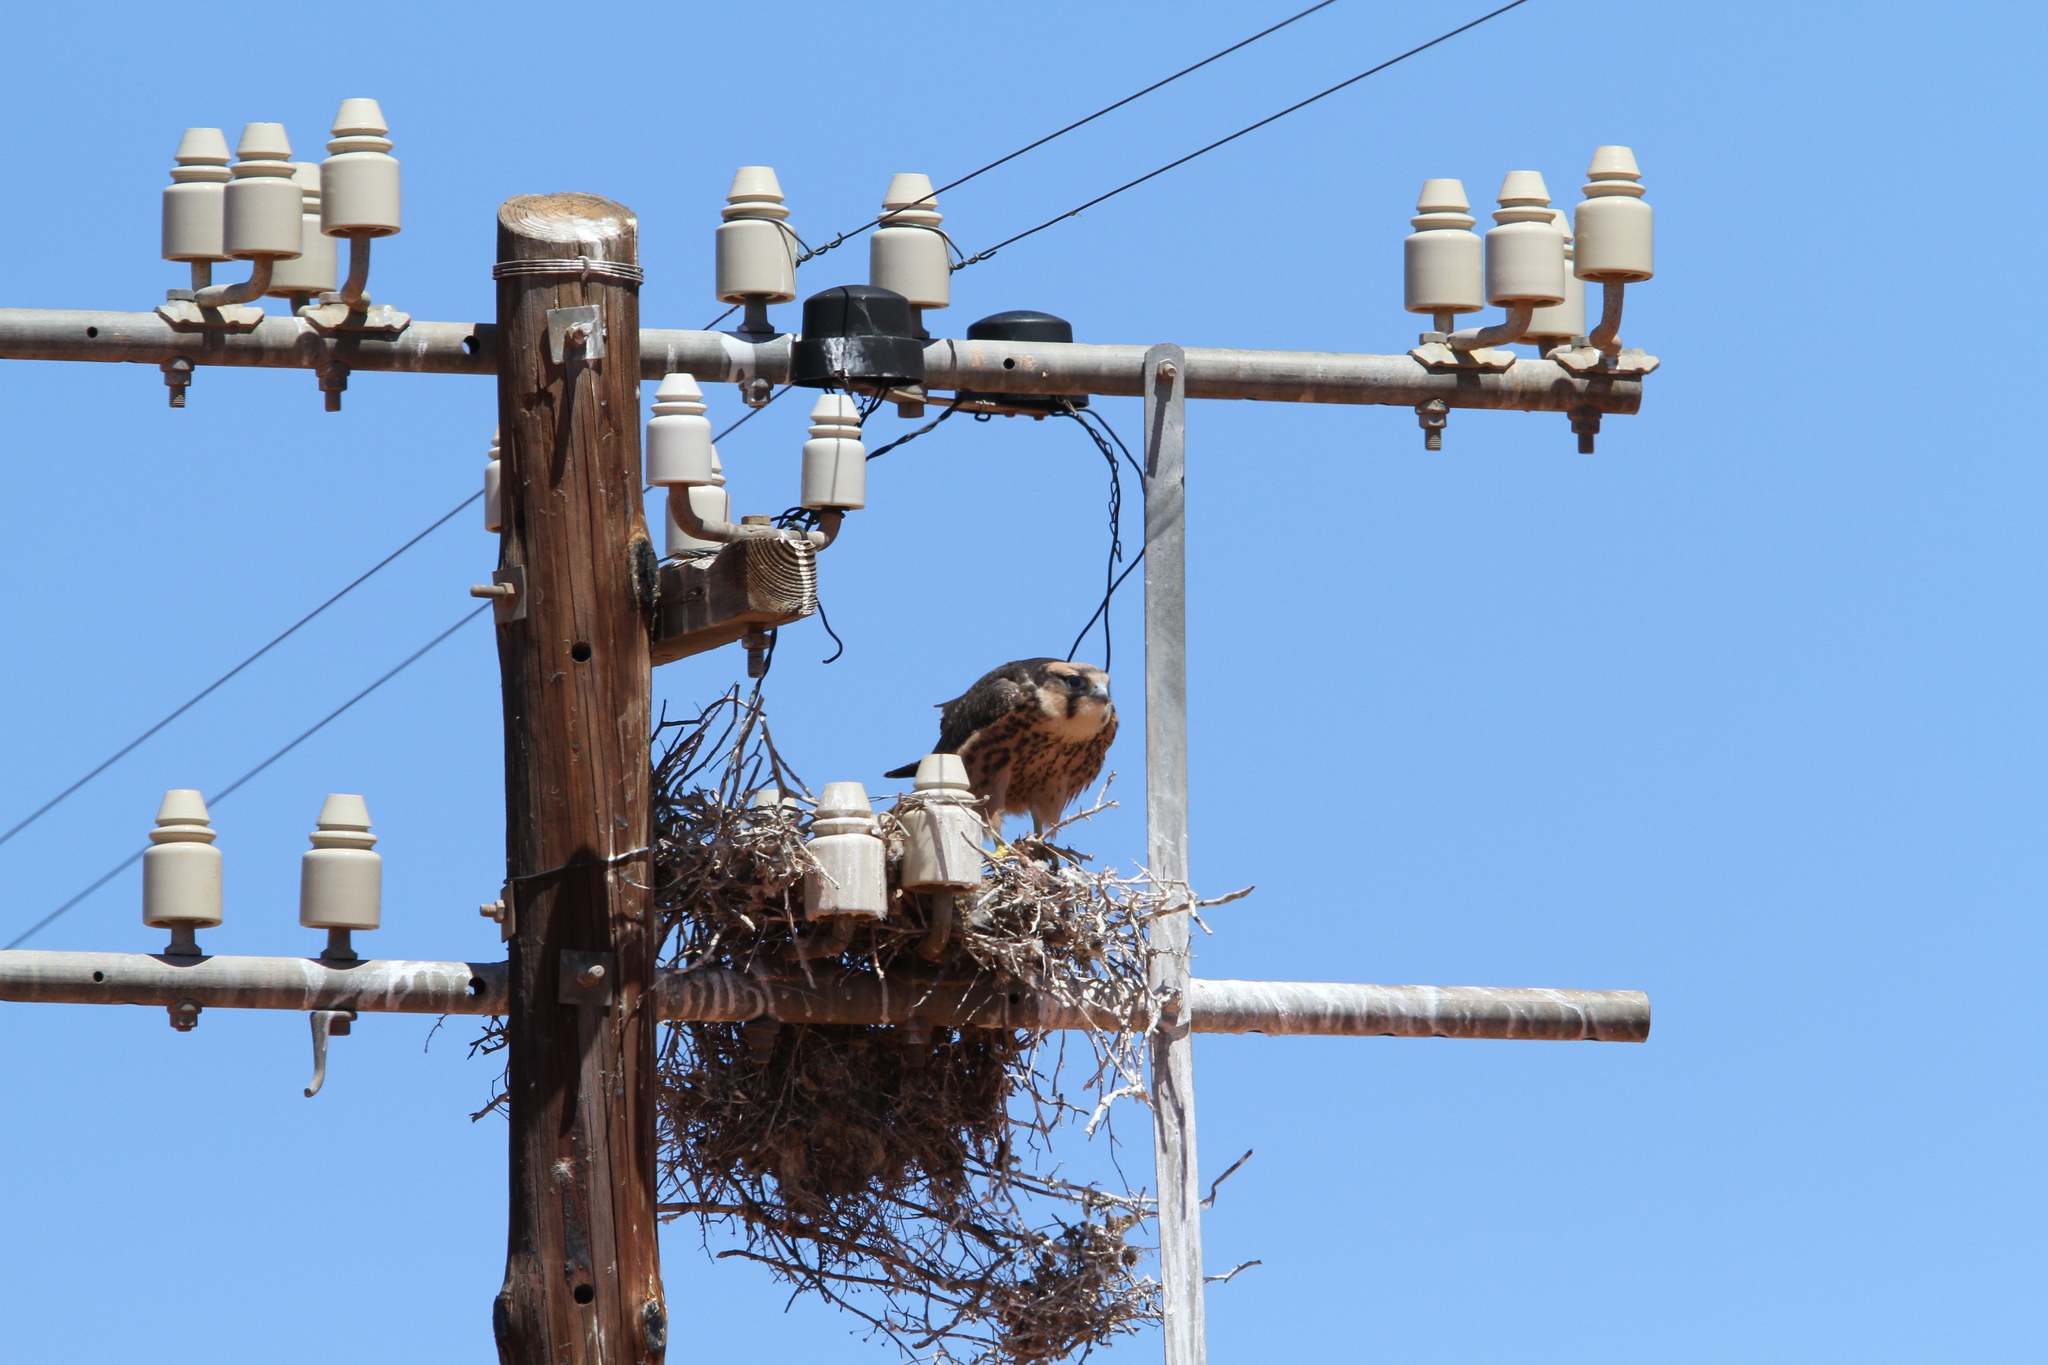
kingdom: Animalia
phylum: Chordata
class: Aves
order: Falconiformes
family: Falconidae
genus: Falco
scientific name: Falco biarmicus
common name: Lanner falcon
